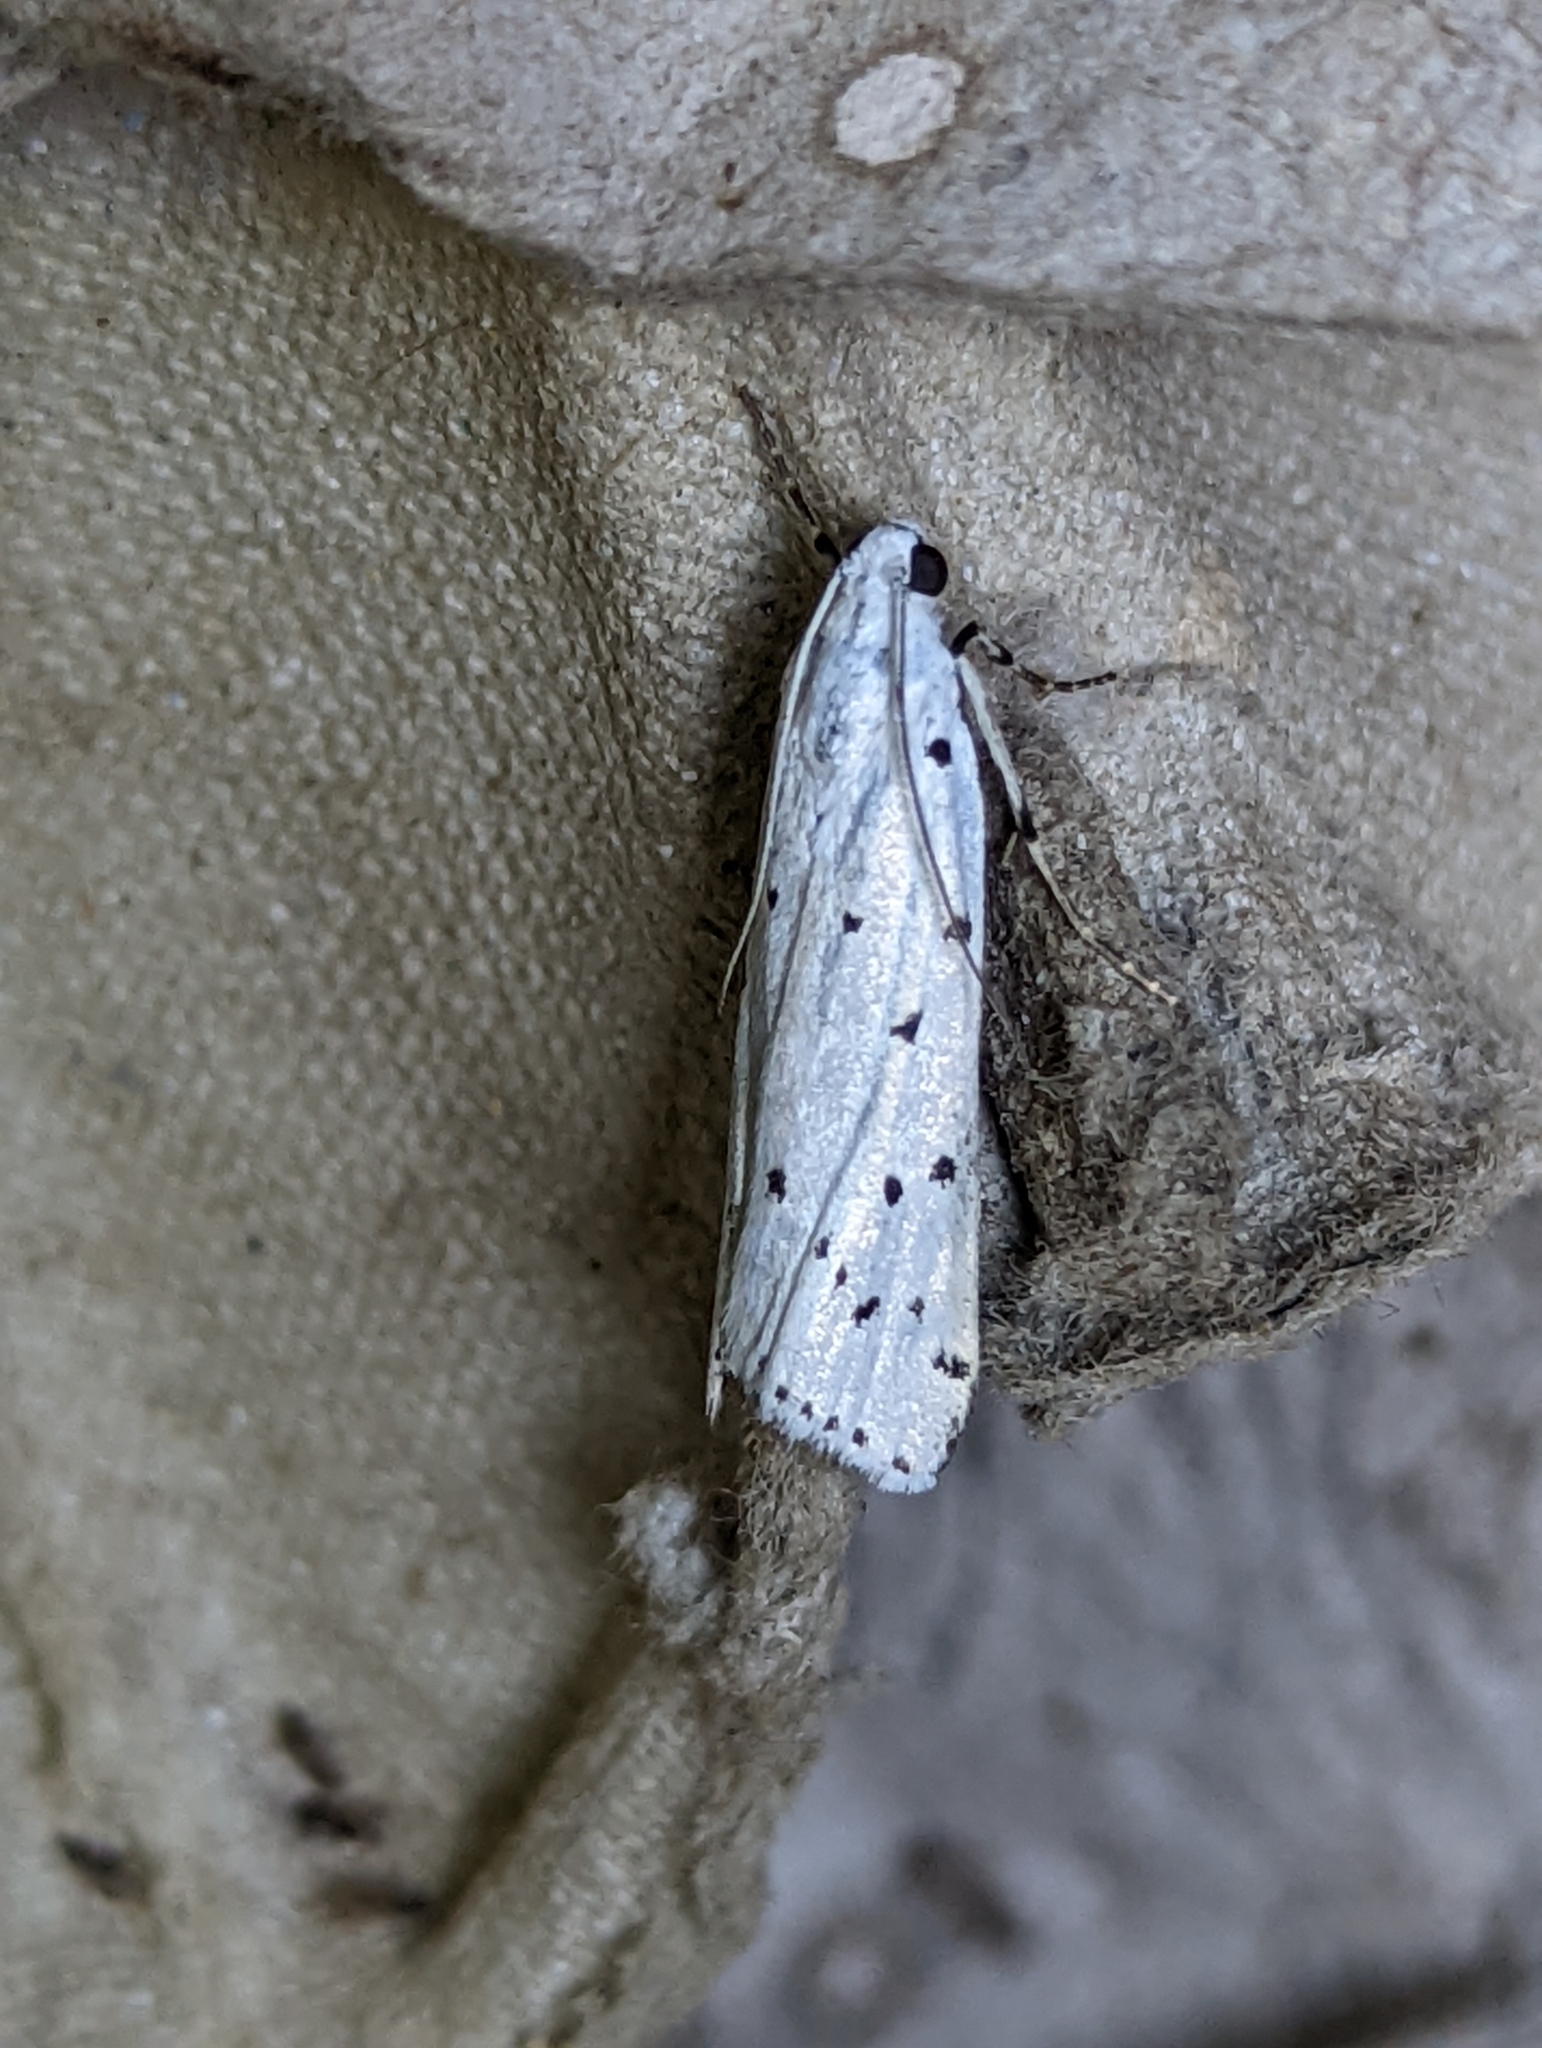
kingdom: Animalia
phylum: Arthropoda
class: Insecta
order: Lepidoptera
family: Pyralidae
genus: Myelois
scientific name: Myelois circumvoluta
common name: Thistle ermine
